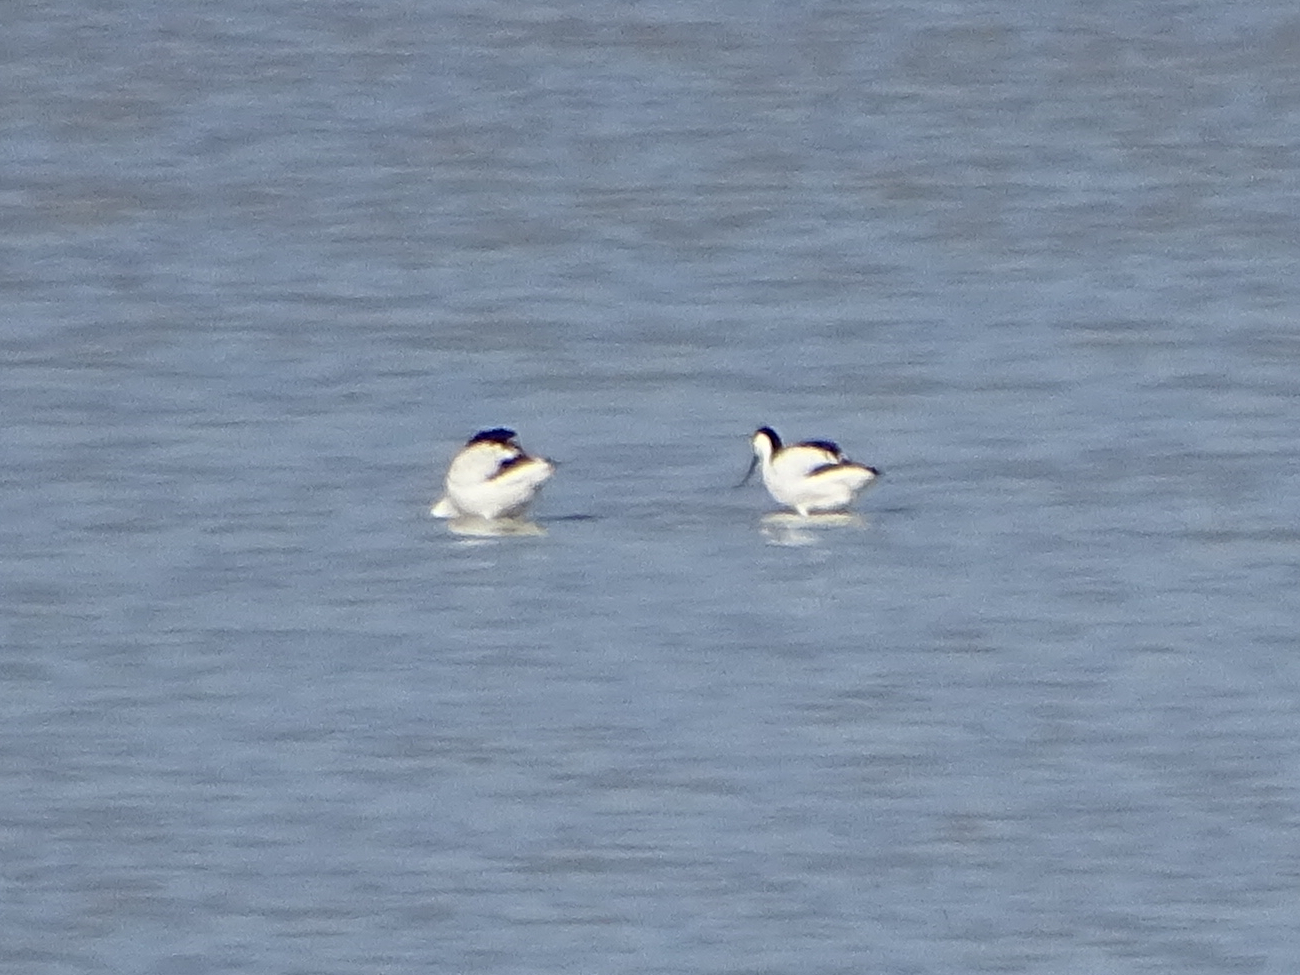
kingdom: Animalia
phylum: Chordata
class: Aves
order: Charadriiformes
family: Recurvirostridae
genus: Recurvirostra
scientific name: Recurvirostra avosetta
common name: Pied avocet
